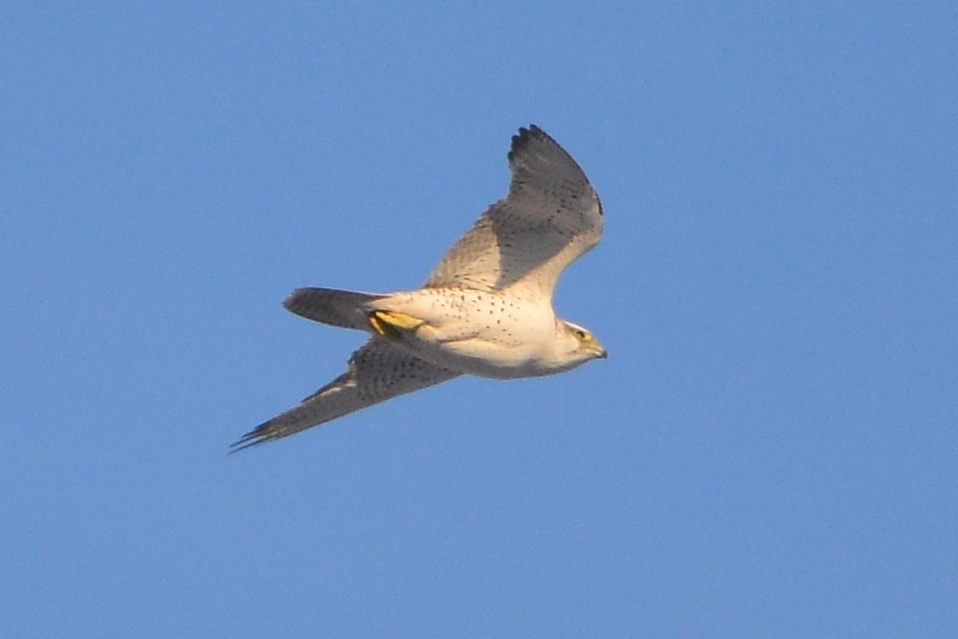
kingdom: Animalia
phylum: Chordata
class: Aves
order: Falconiformes
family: Falconidae
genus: Falco
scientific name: Falco rusticolus
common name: Gyrfalcon
